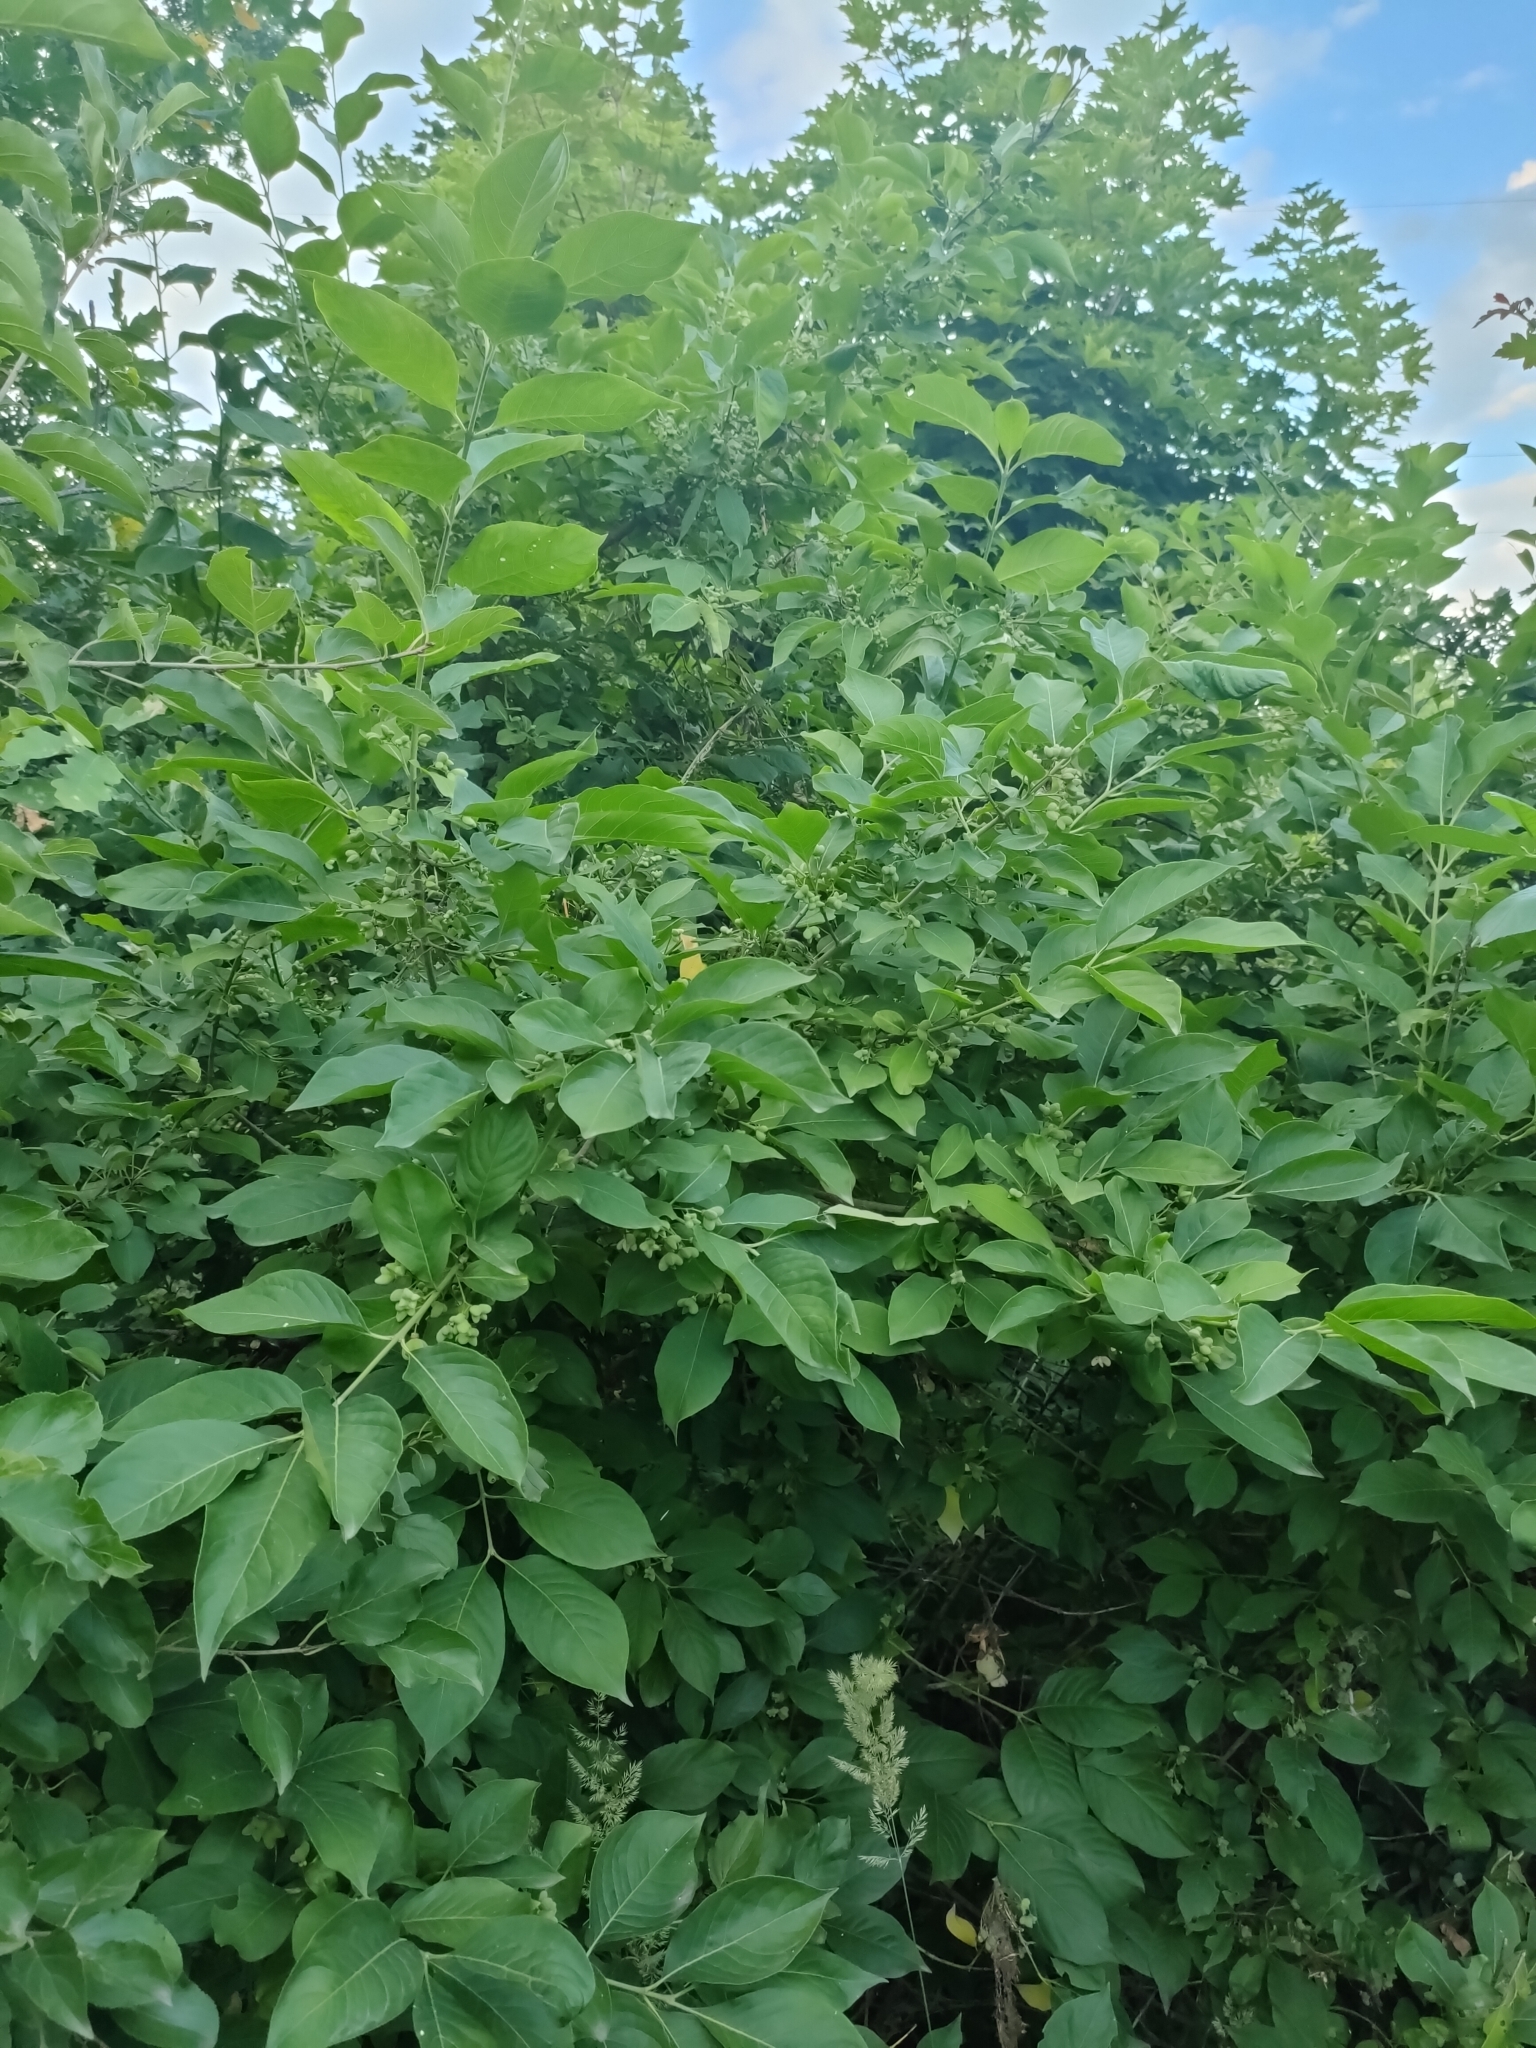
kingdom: Plantae
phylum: Tracheophyta
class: Magnoliopsida
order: Celastrales
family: Celastraceae
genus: Euonymus
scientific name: Euonymus europaeus
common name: Spindle
